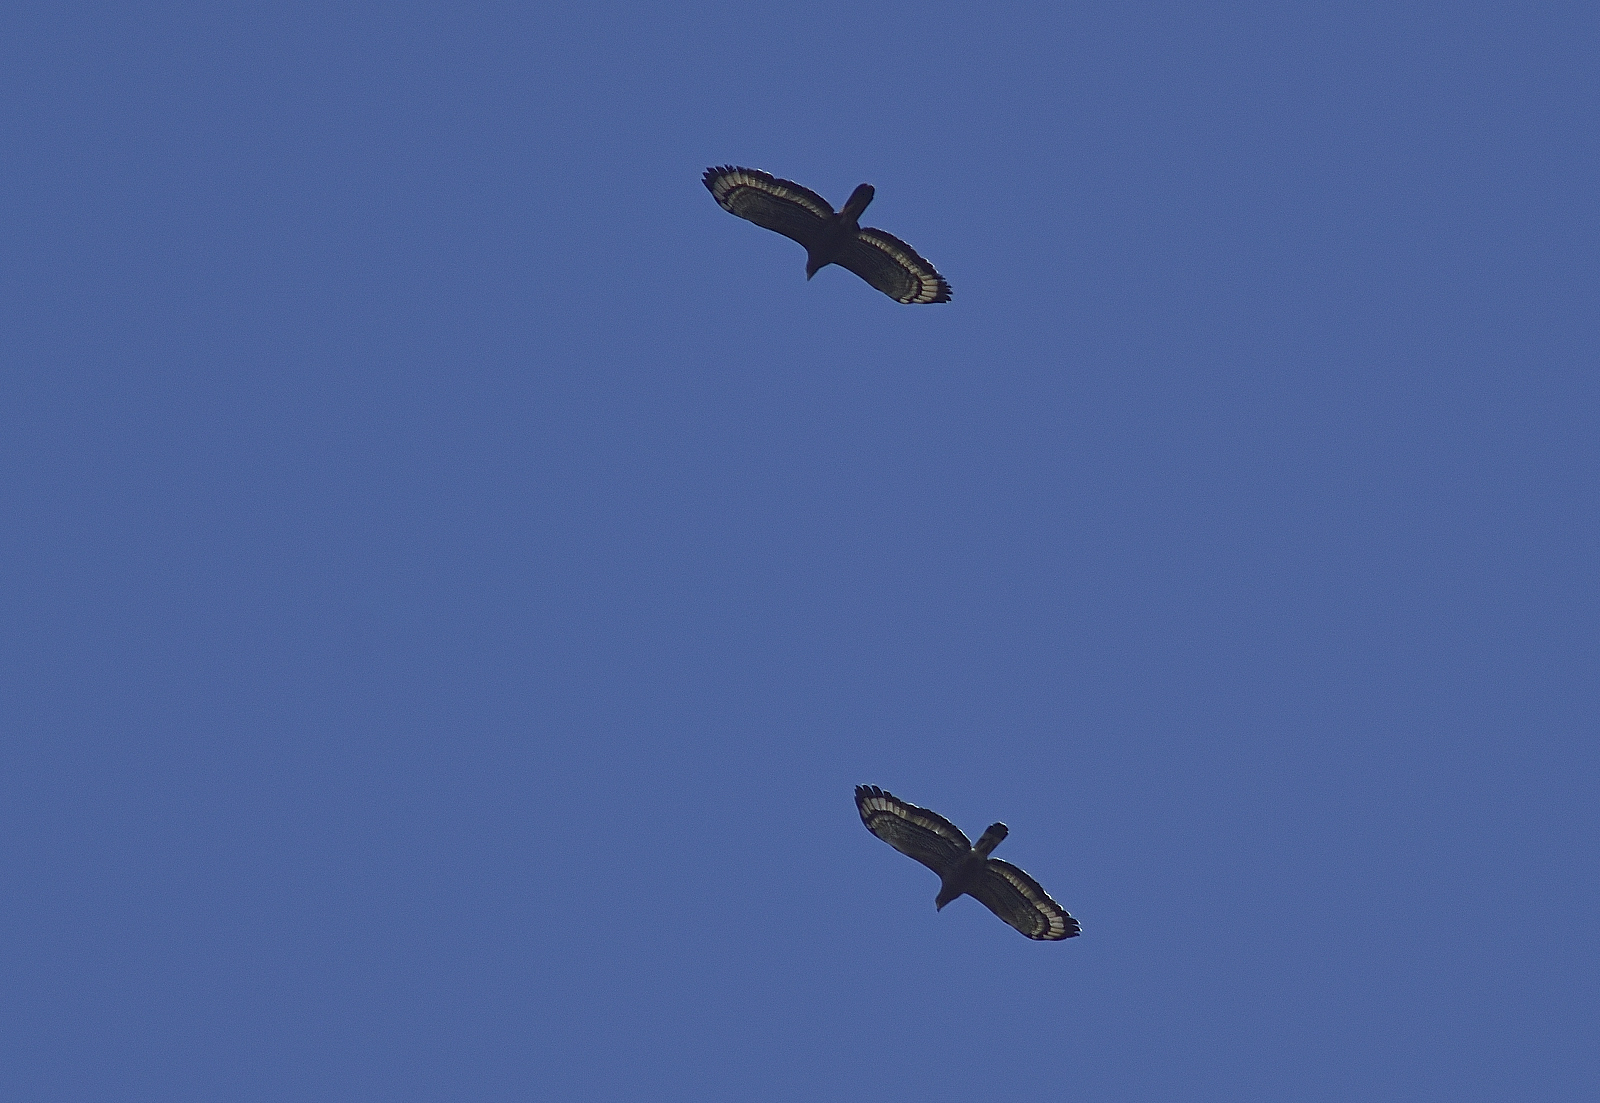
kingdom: Animalia
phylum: Chordata
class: Aves
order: Accipitriformes
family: Accipitridae
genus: Spilornis
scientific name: Spilornis cheela
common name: Crested serpent eagle
